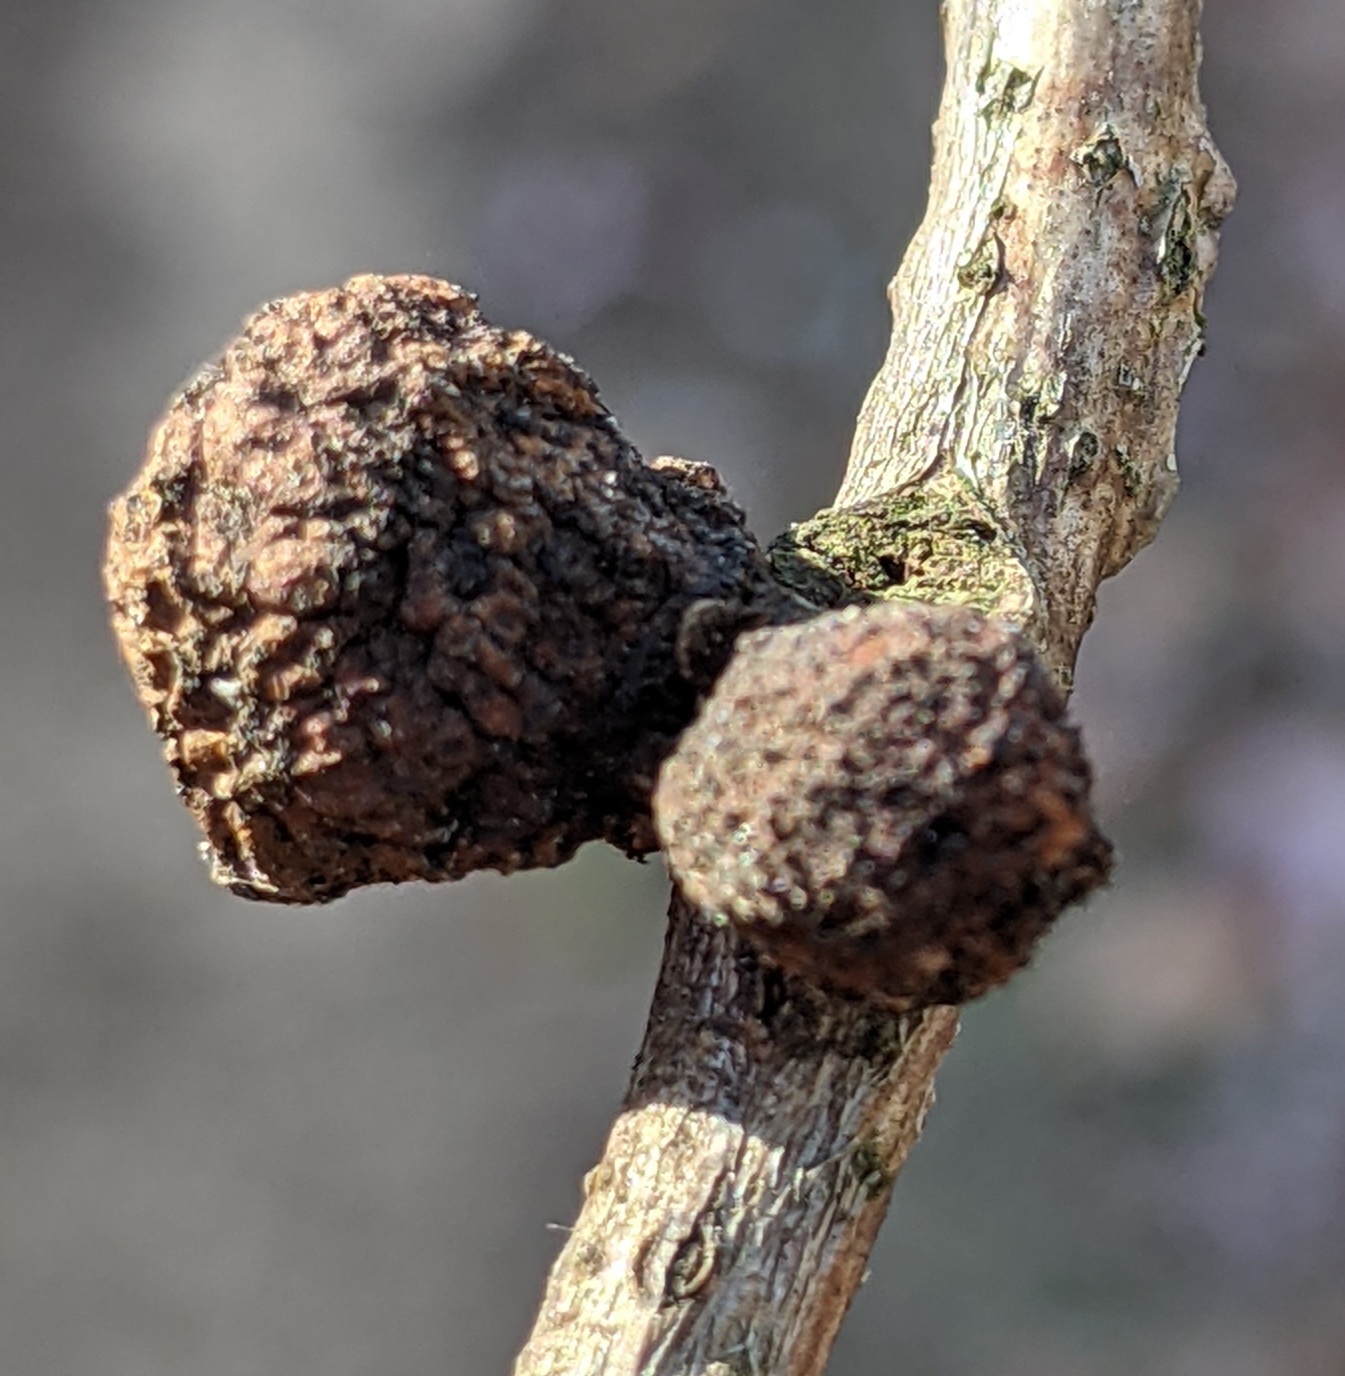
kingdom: Animalia
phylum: Arthropoda
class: Insecta
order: Hymenoptera
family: Cynipidae
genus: Disholcaspis
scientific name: Disholcaspis quercusglobulus
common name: Round bullet gall wasp
